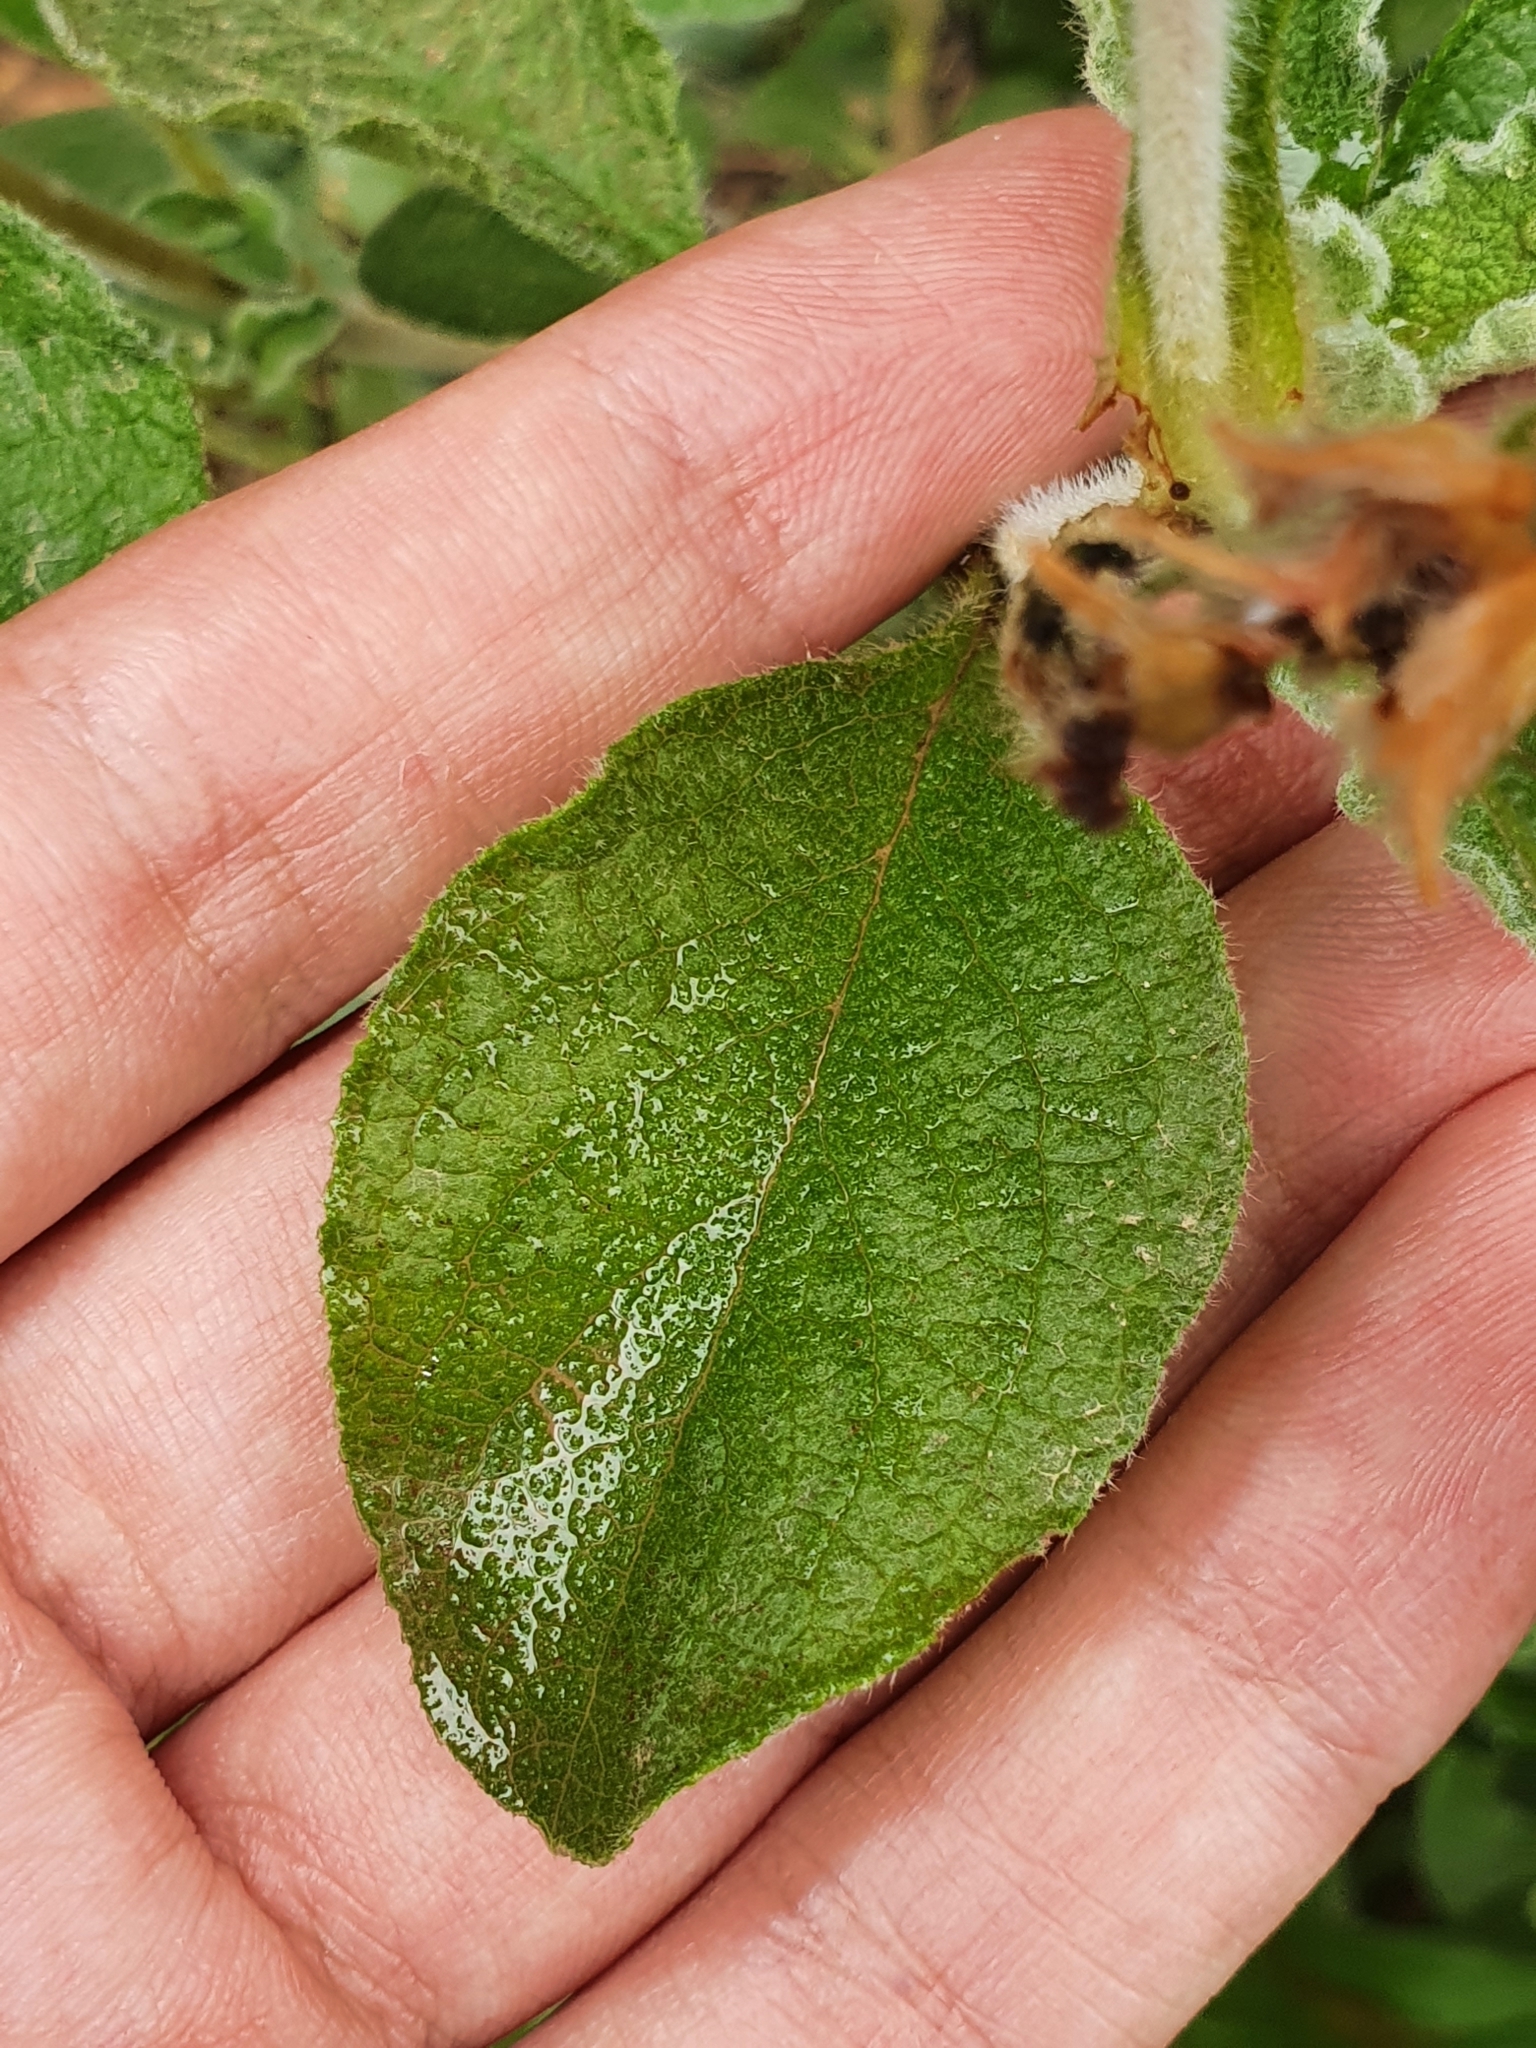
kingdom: Plantae
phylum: Tracheophyta
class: Magnoliopsida
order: Malvales
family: Cistaceae
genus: Cistus
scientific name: Cistus creticus
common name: Cretan rockrose
